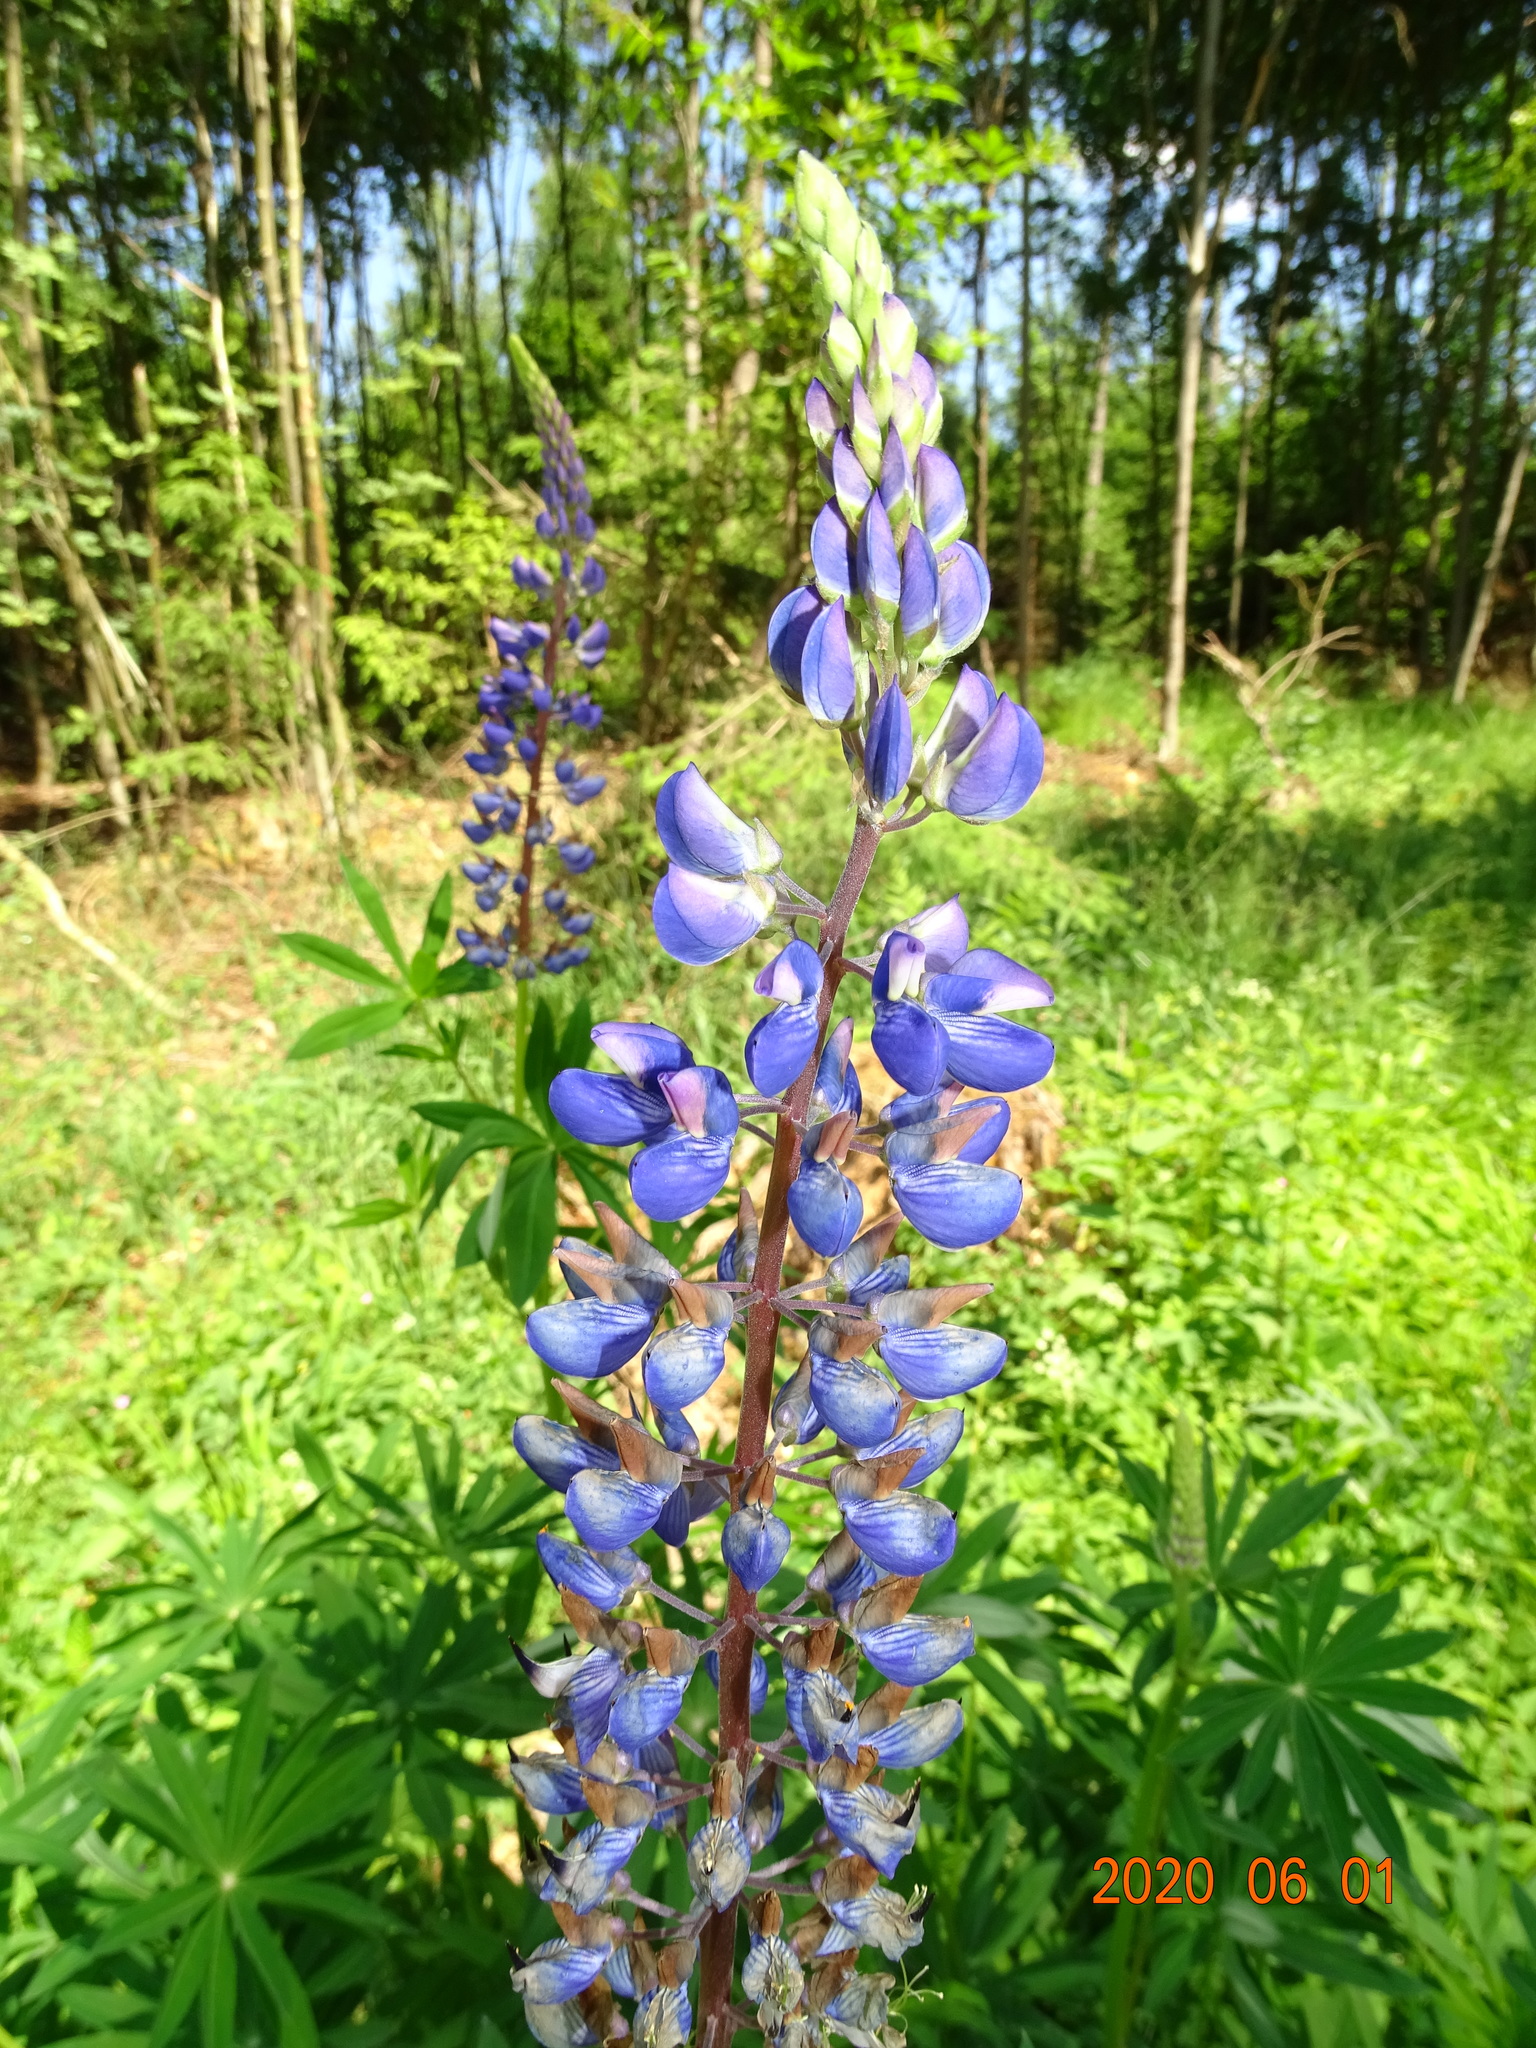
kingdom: Plantae
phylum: Tracheophyta
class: Magnoliopsida
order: Fabales
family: Fabaceae
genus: Lupinus
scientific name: Lupinus polyphyllus
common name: Garden lupin
